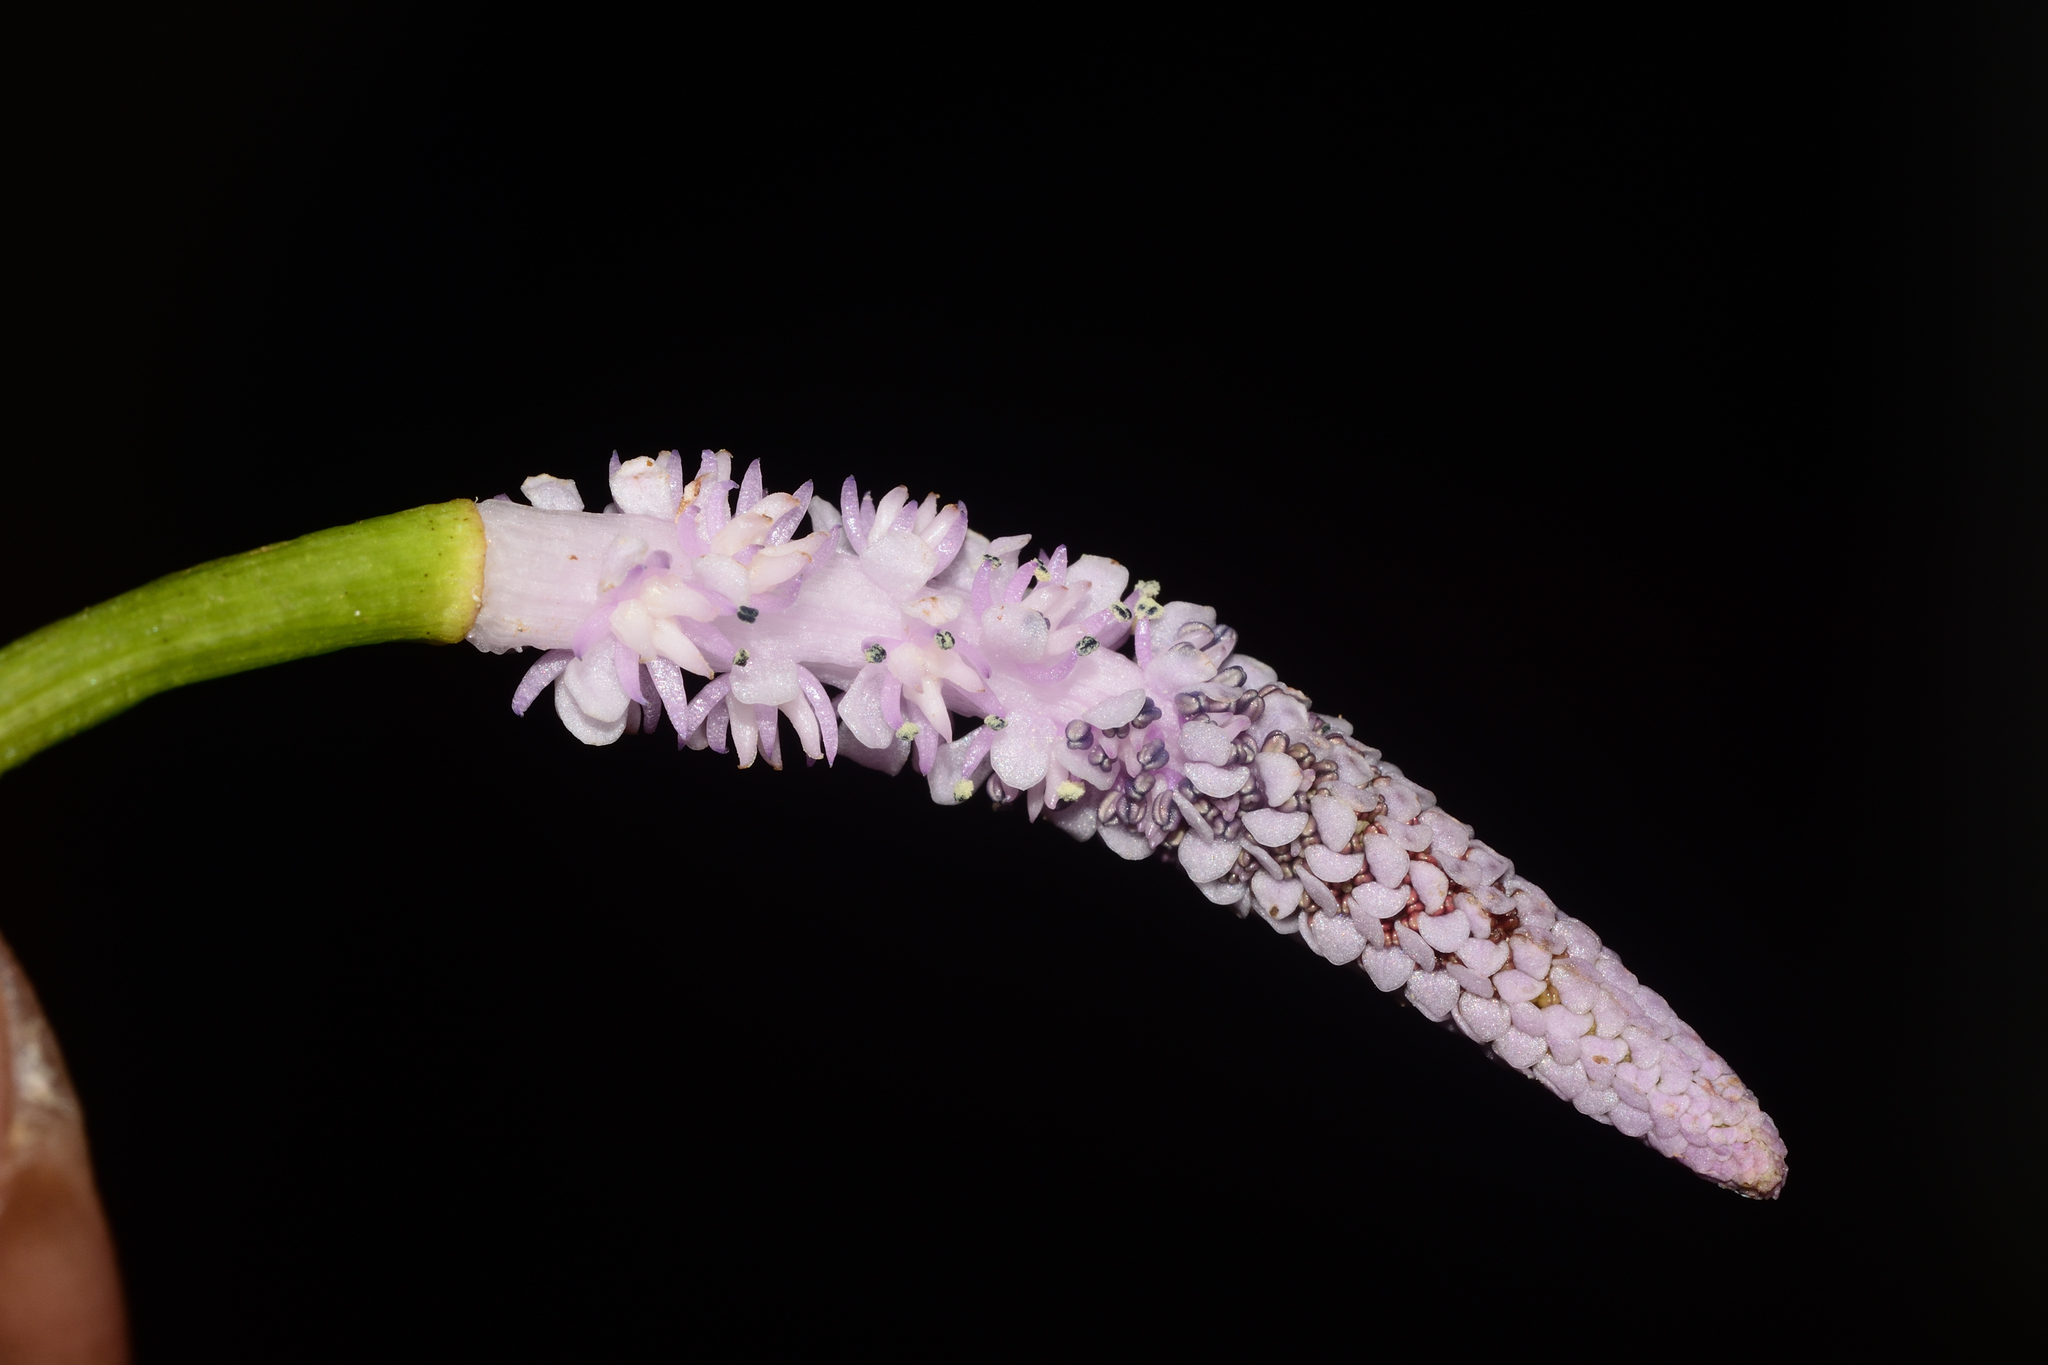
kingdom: Plantae
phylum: Tracheophyta
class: Liliopsida
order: Alismatales
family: Aponogetonaceae
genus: Aponogeton
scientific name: Aponogeton natans
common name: Drifting sword plant
